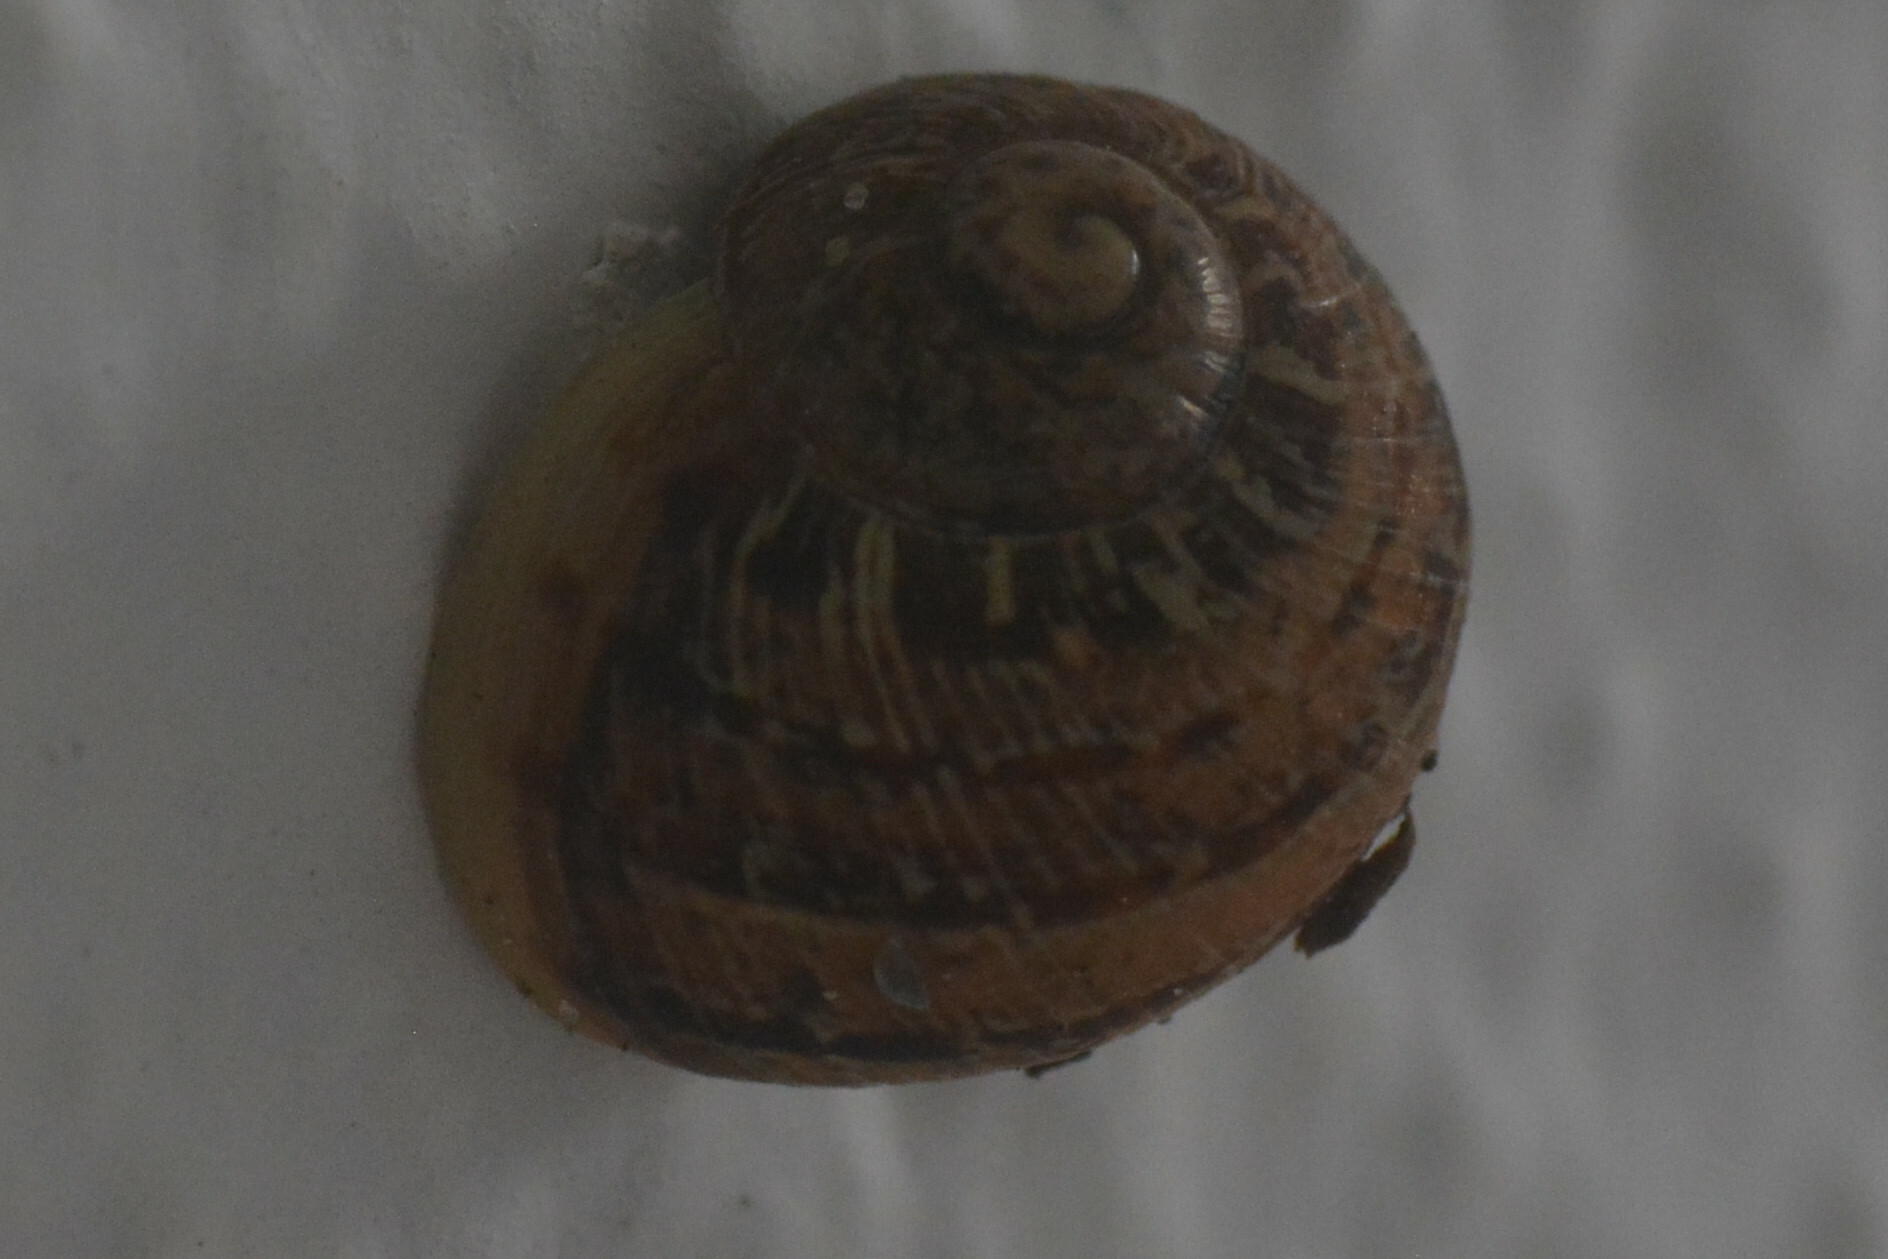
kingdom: Animalia
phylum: Mollusca
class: Gastropoda
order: Stylommatophora
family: Helicidae
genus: Cornu
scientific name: Cornu aspersum
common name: Brown garden snail
